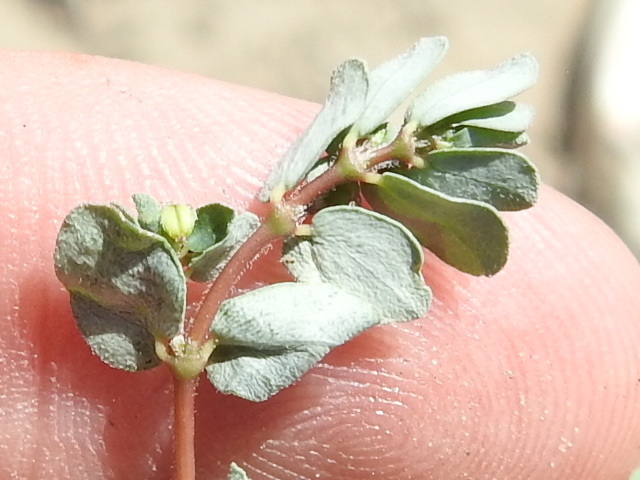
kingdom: Plantae
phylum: Tracheophyta
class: Magnoliopsida
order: Malpighiales
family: Euphorbiaceae
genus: Euphorbia
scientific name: Euphorbia prostrata
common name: Prostrate sandmat
